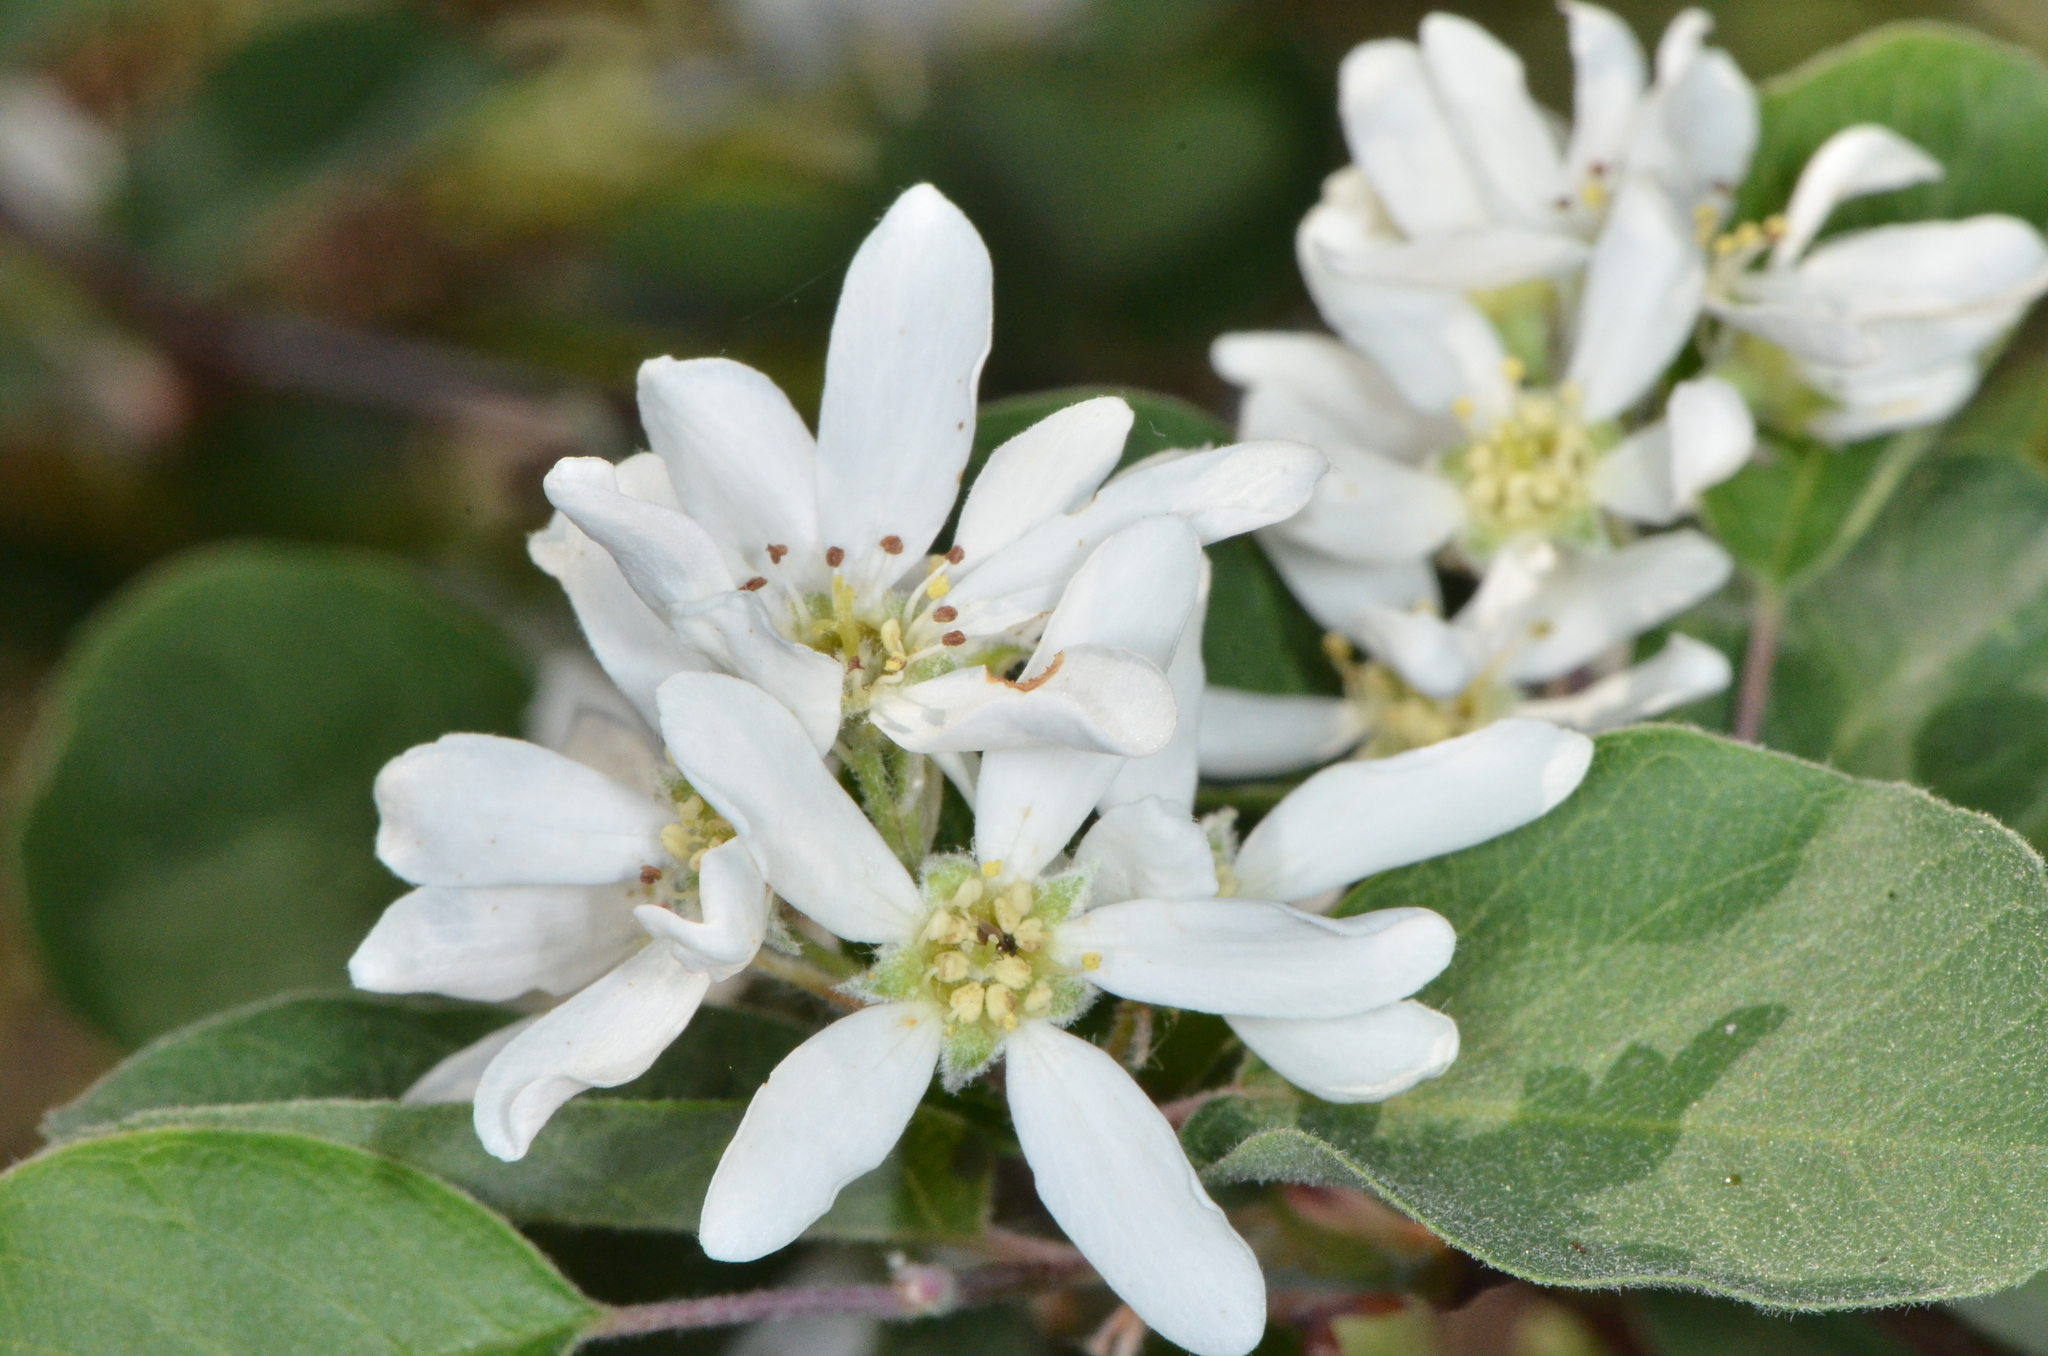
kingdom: Plantae
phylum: Tracheophyta
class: Magnoliopsida
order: Rosales
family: Rosaceae
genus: Amelanchier
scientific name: Amelanchier utahensis
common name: Utah serviceberry
